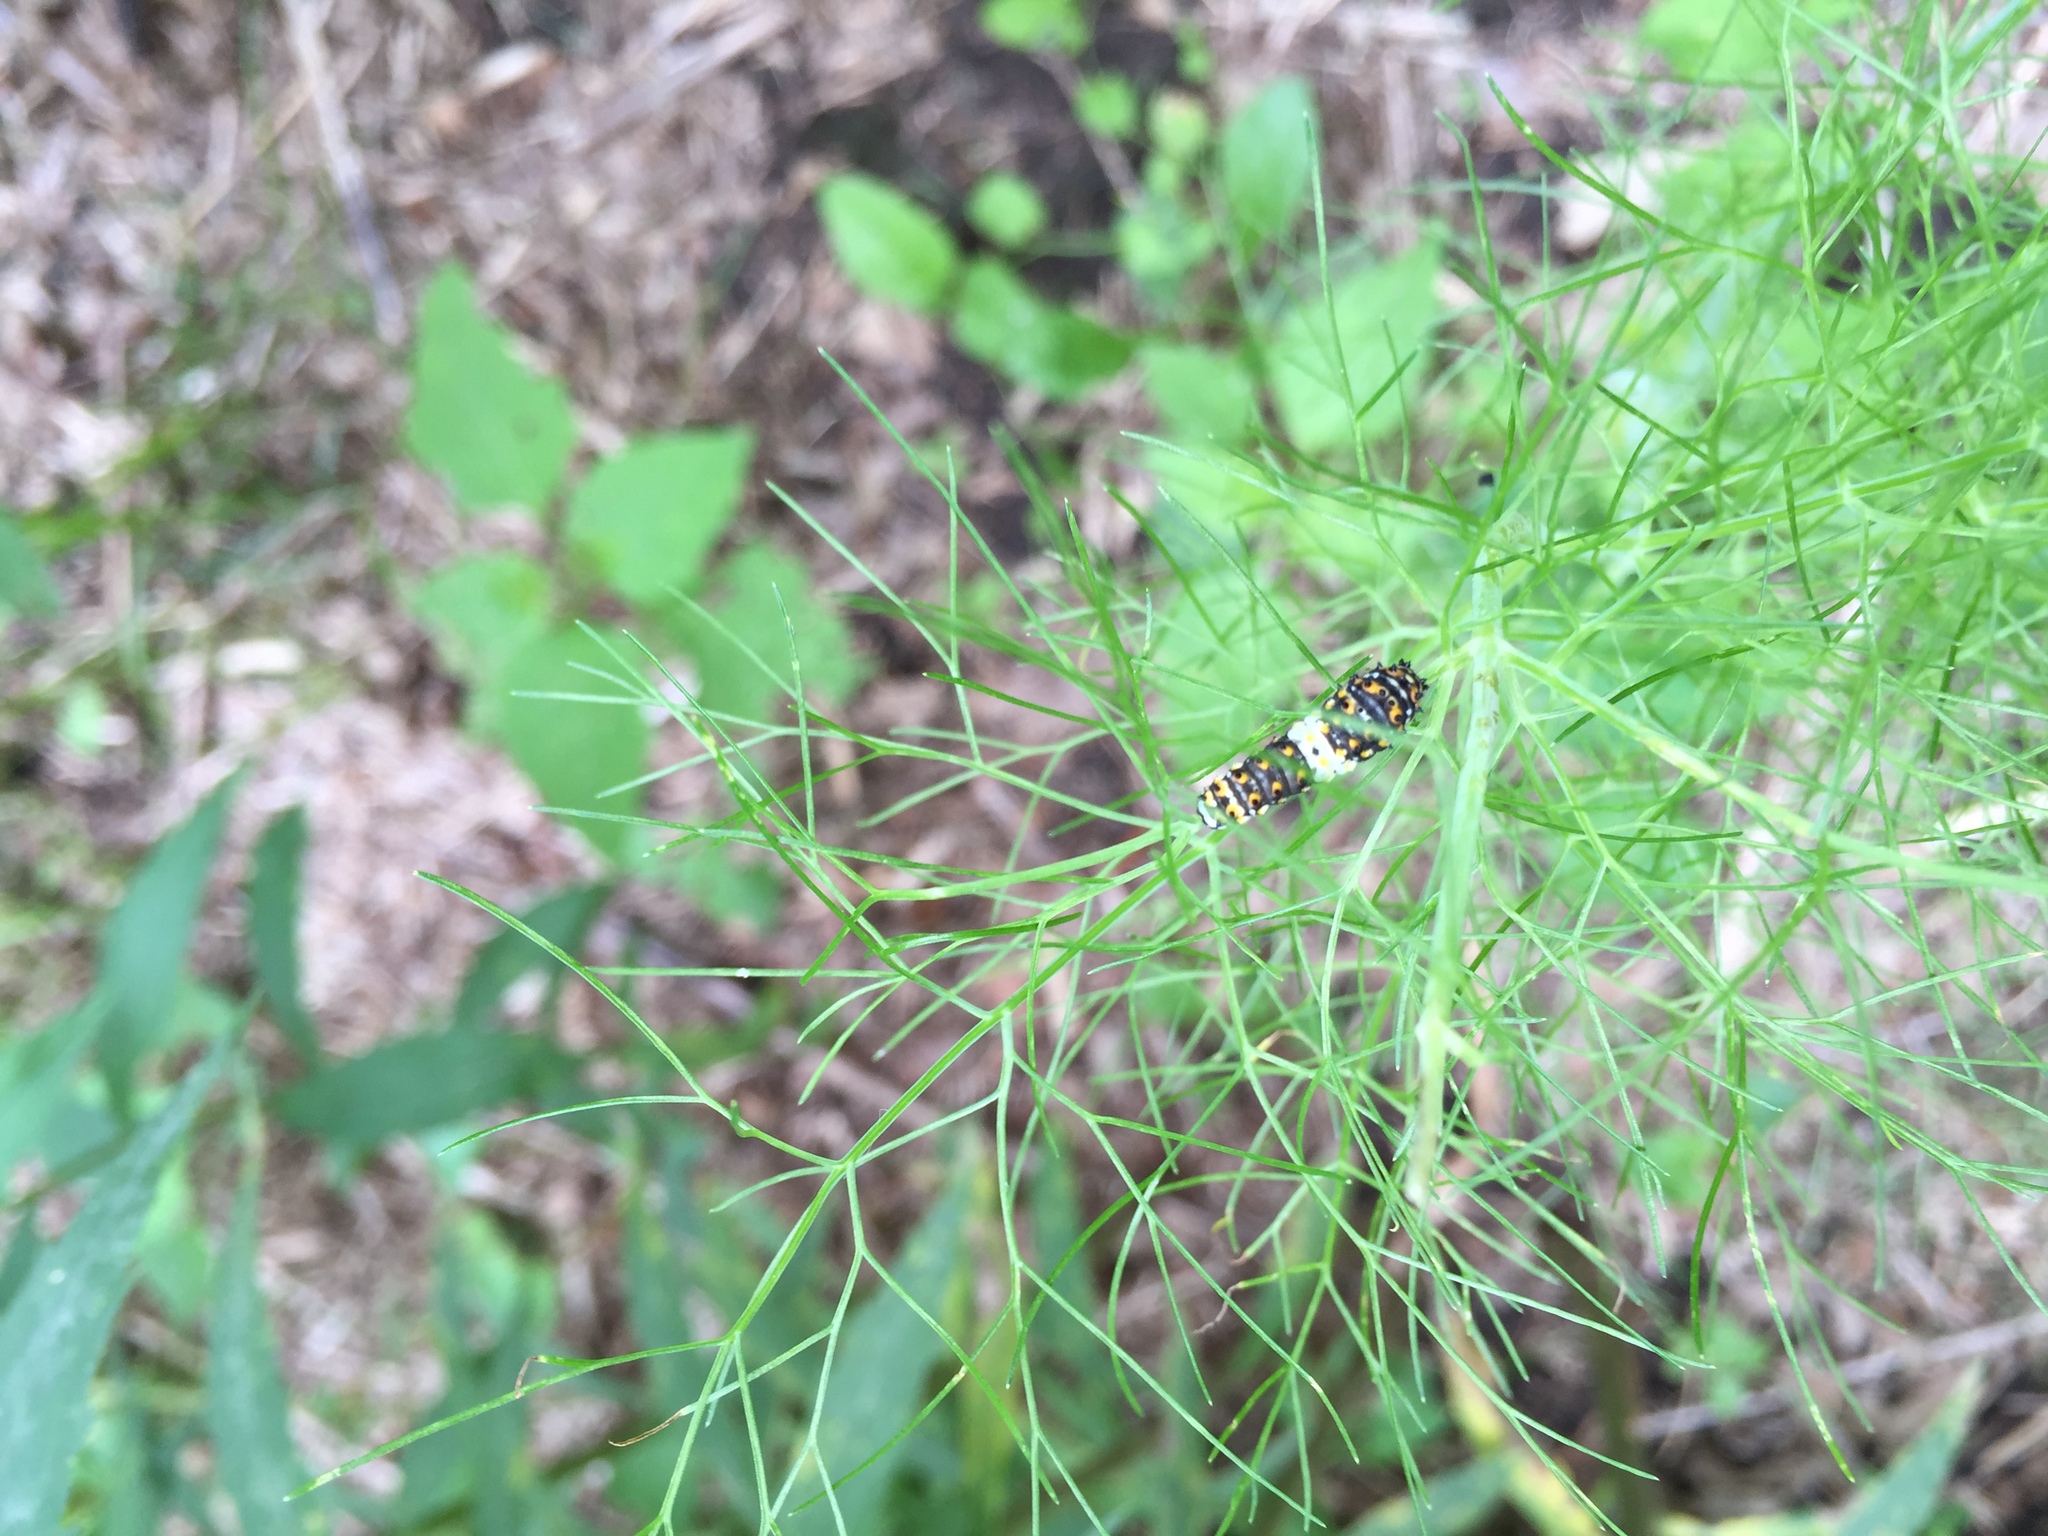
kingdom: Animalia
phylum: Arthropoda
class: Insecta
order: Lepidoptera
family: Papilionidae
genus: Papilio
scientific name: Papilio polyxenes
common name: Black swallowtail
